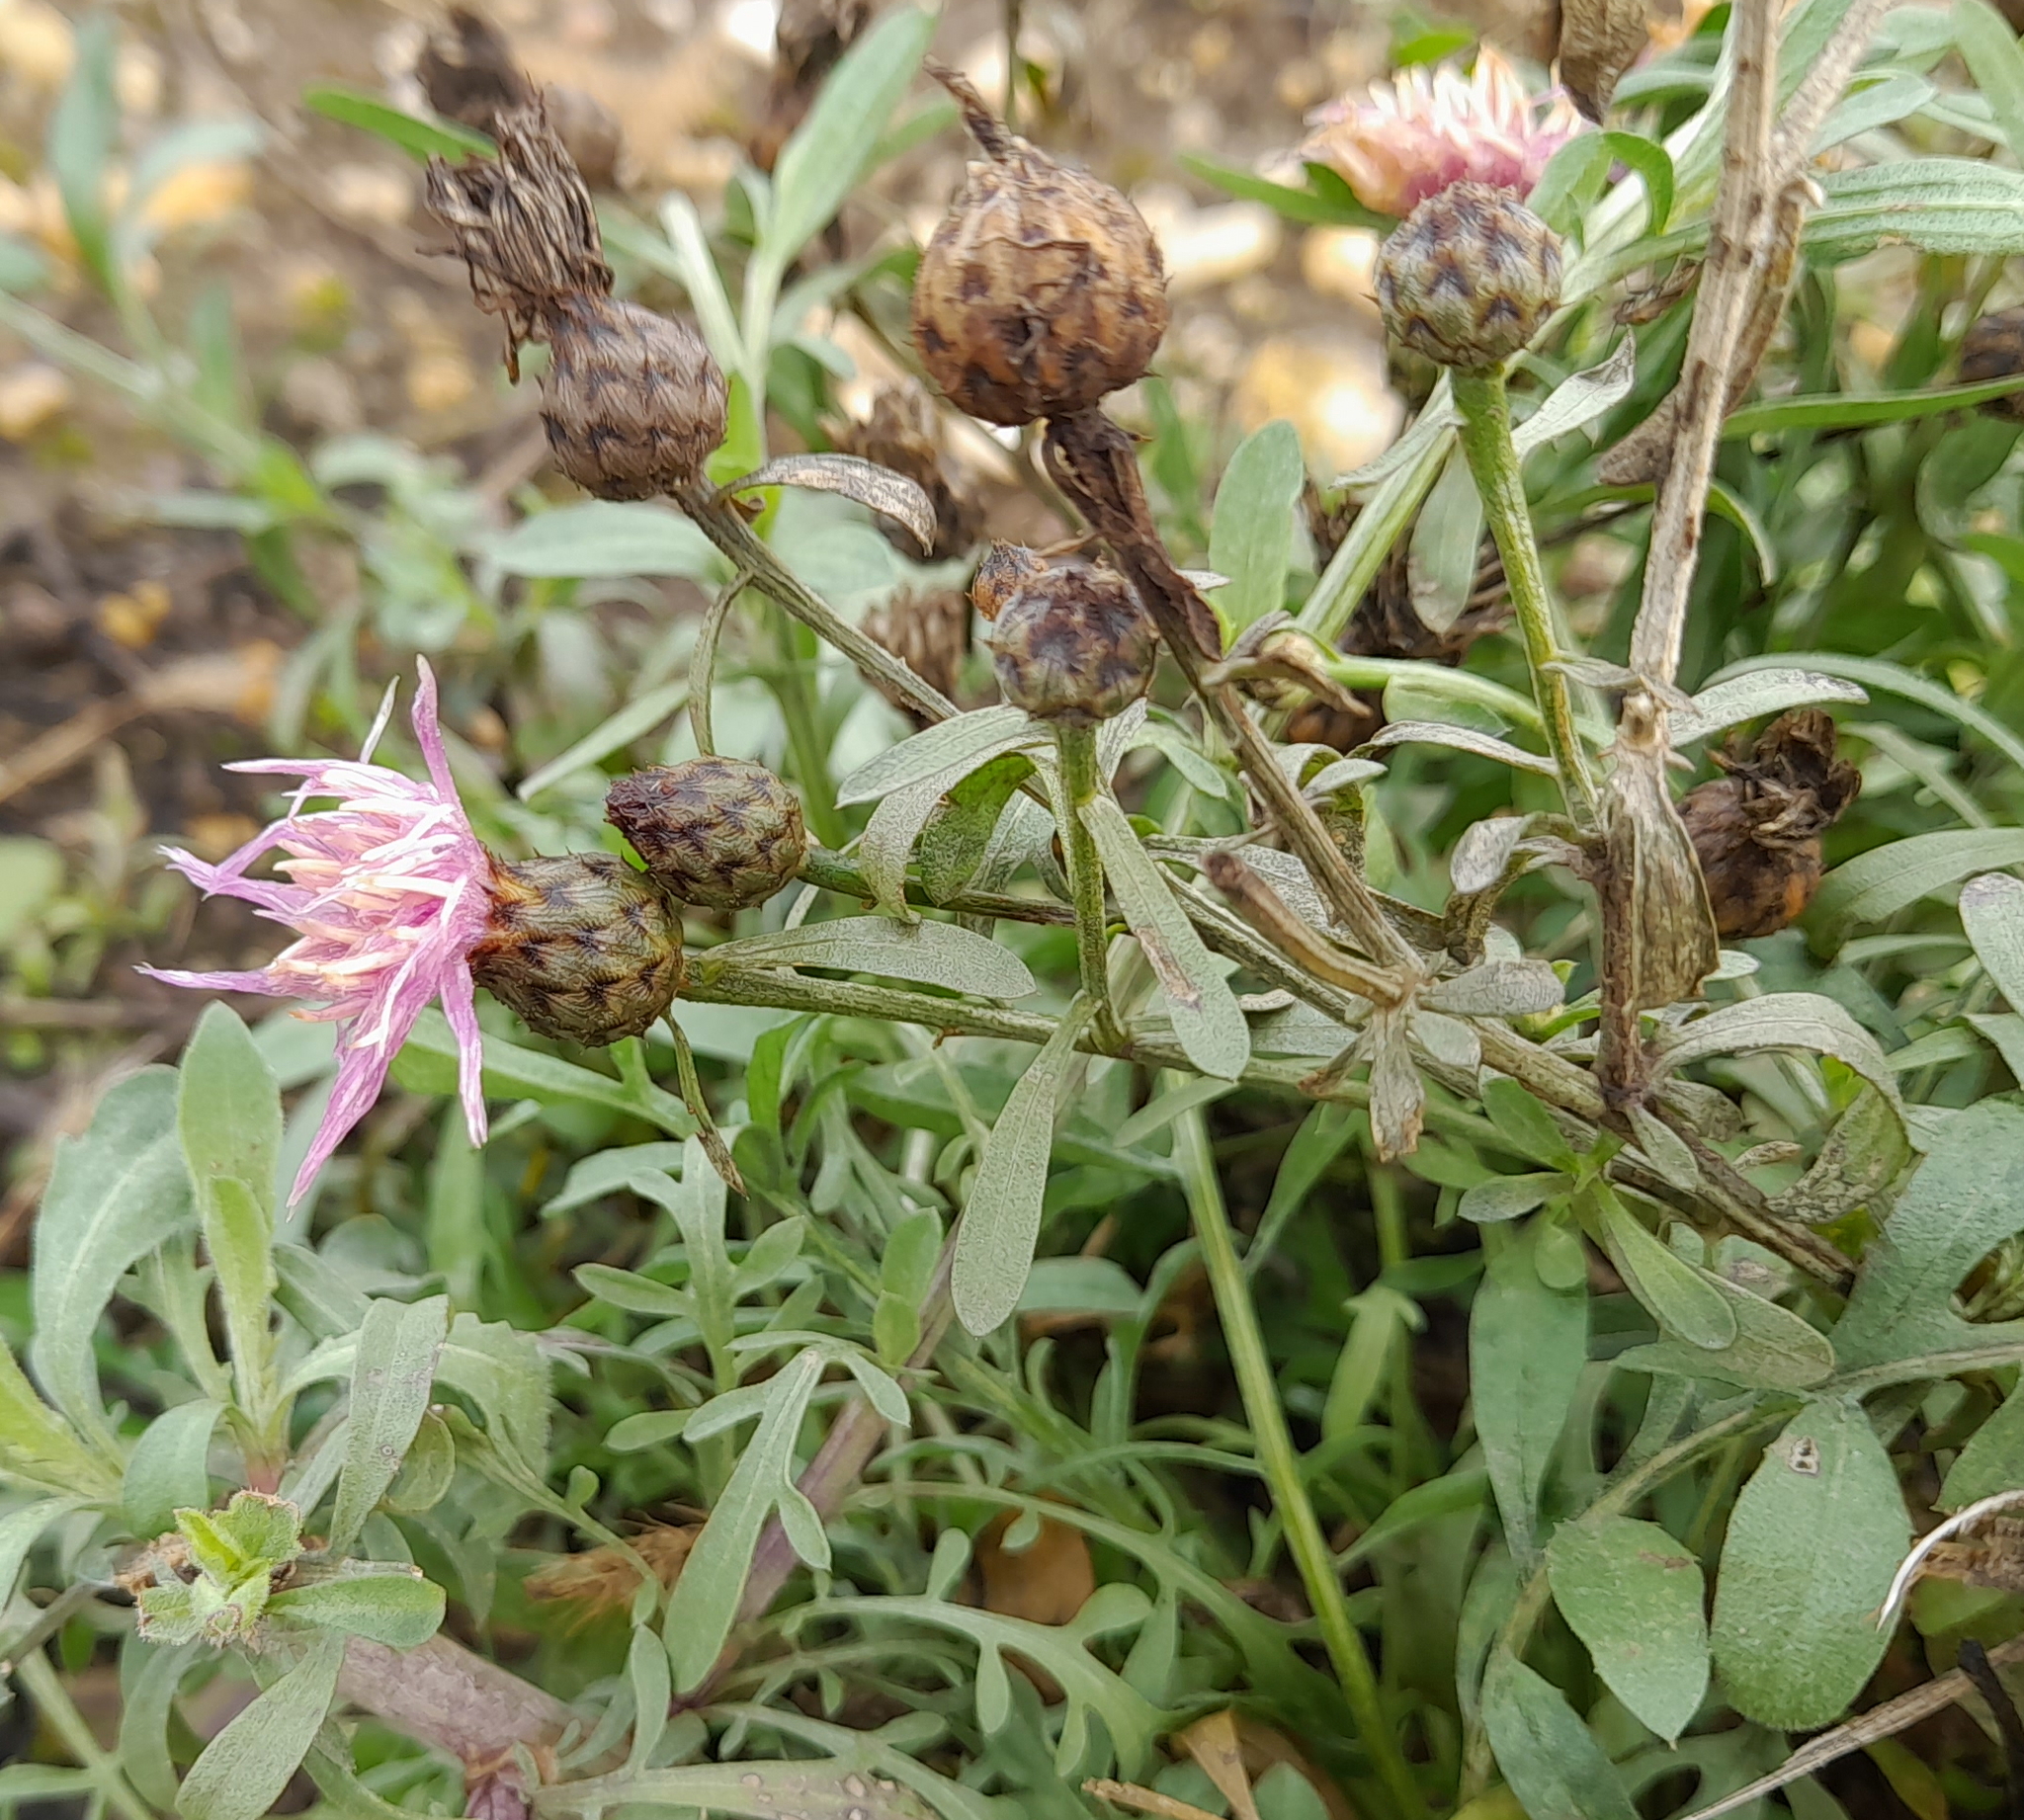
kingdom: Plantae
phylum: Tracheophyta
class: Magnoliopsida
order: Asterales
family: Asteraceae
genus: Centaurea
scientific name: Centaurea scabiosa
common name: Greater knapweed
